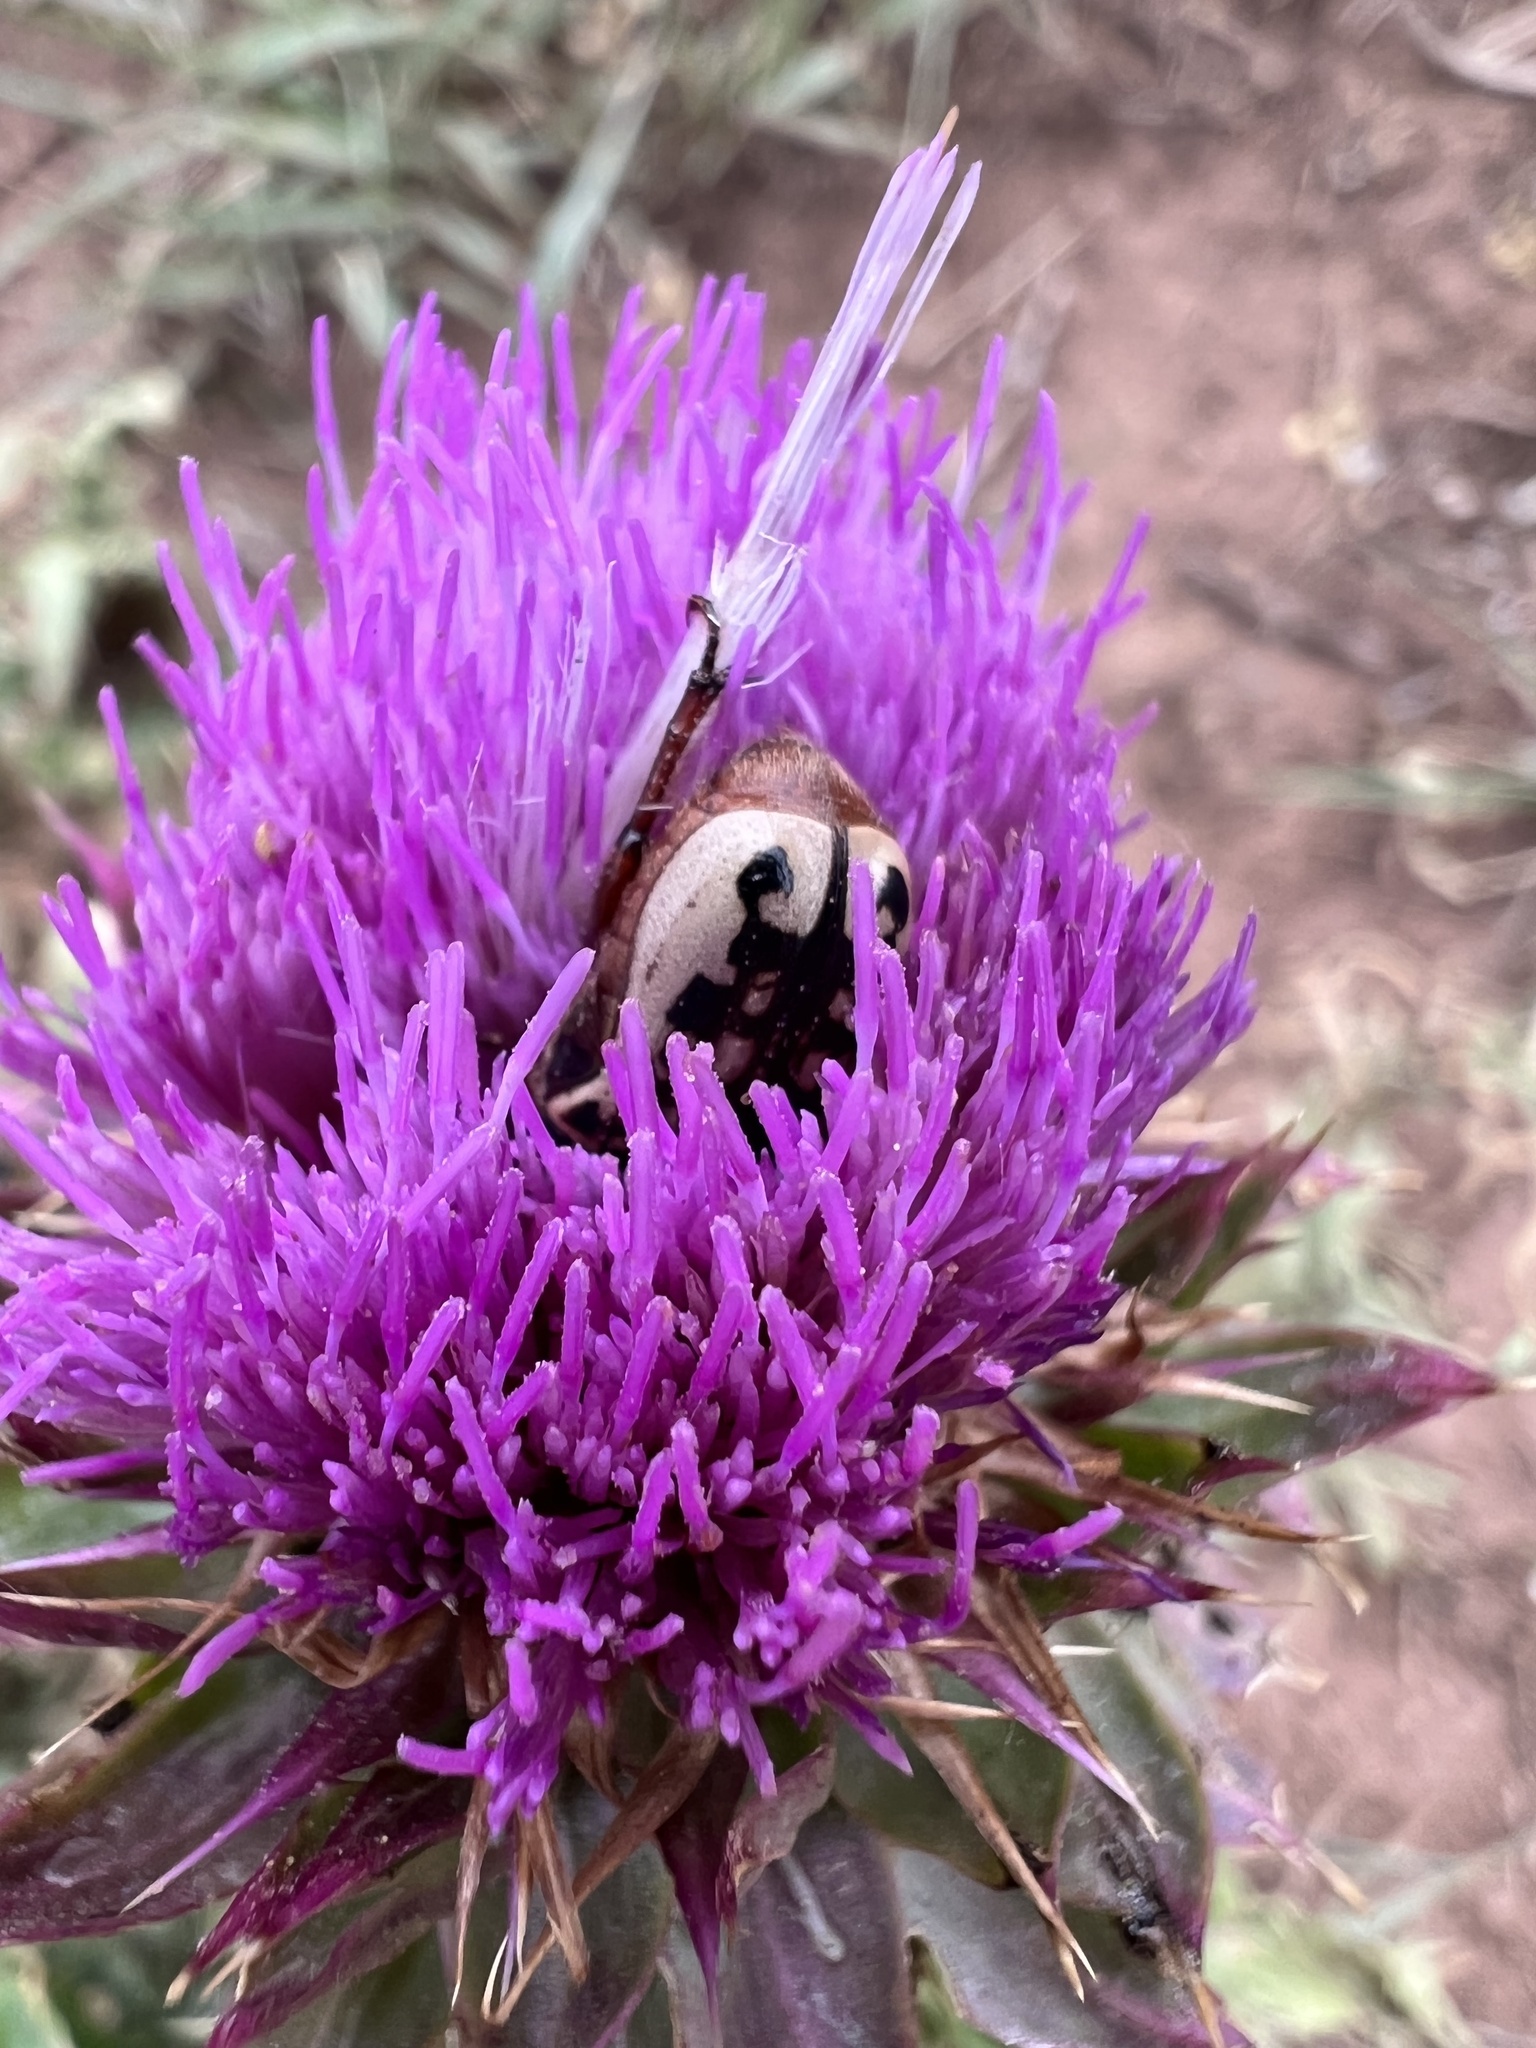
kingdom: Animalia
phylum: Arthropoda
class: Insecta
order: Coleoptera
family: Scarabaeidae
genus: Euphoria
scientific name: Euphoria kernii
